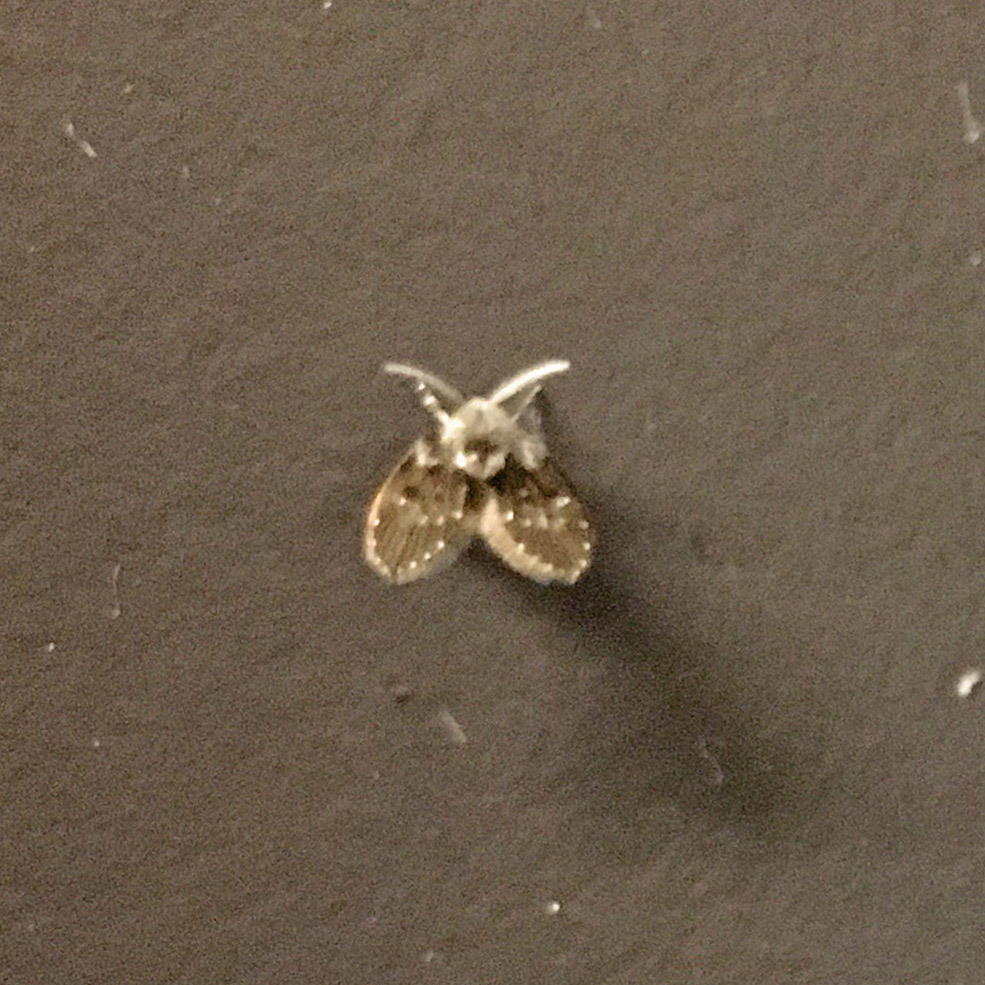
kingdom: Animalia
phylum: Arthropoda
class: Insecta
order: Diptera
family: Psychodidae
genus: Clogmia
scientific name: Clogmia albipunctatus
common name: White-spotted moth fly
